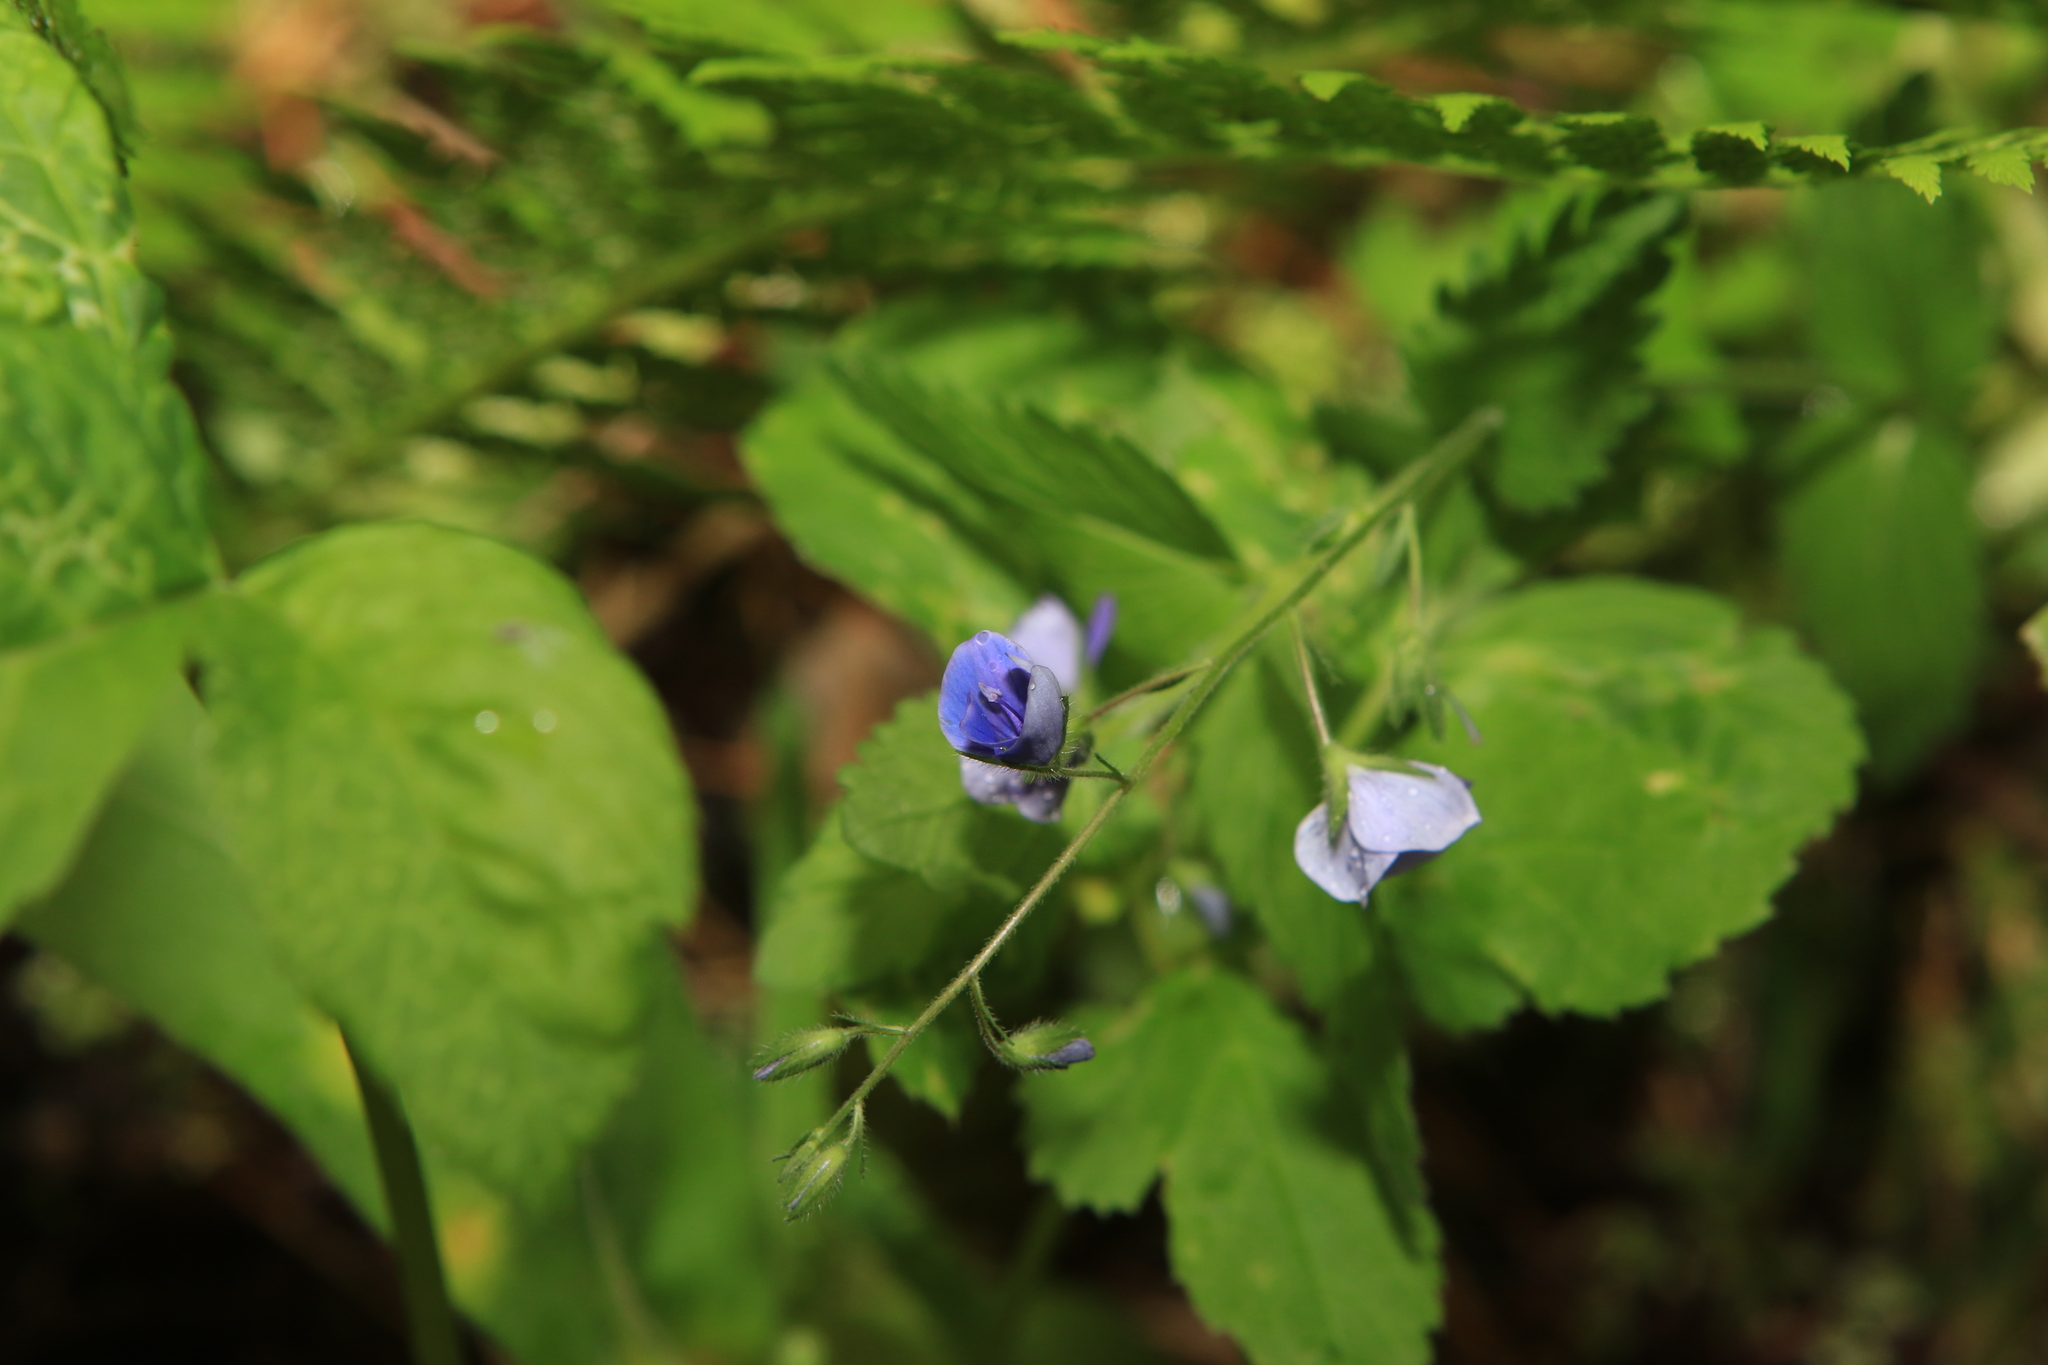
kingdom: Plantae
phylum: Tracheophyta
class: Magnoliopsida
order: Lamiales
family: Plantaginaceae
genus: Veronica
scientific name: Veronica chamaedrys
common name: Germander speedwell
